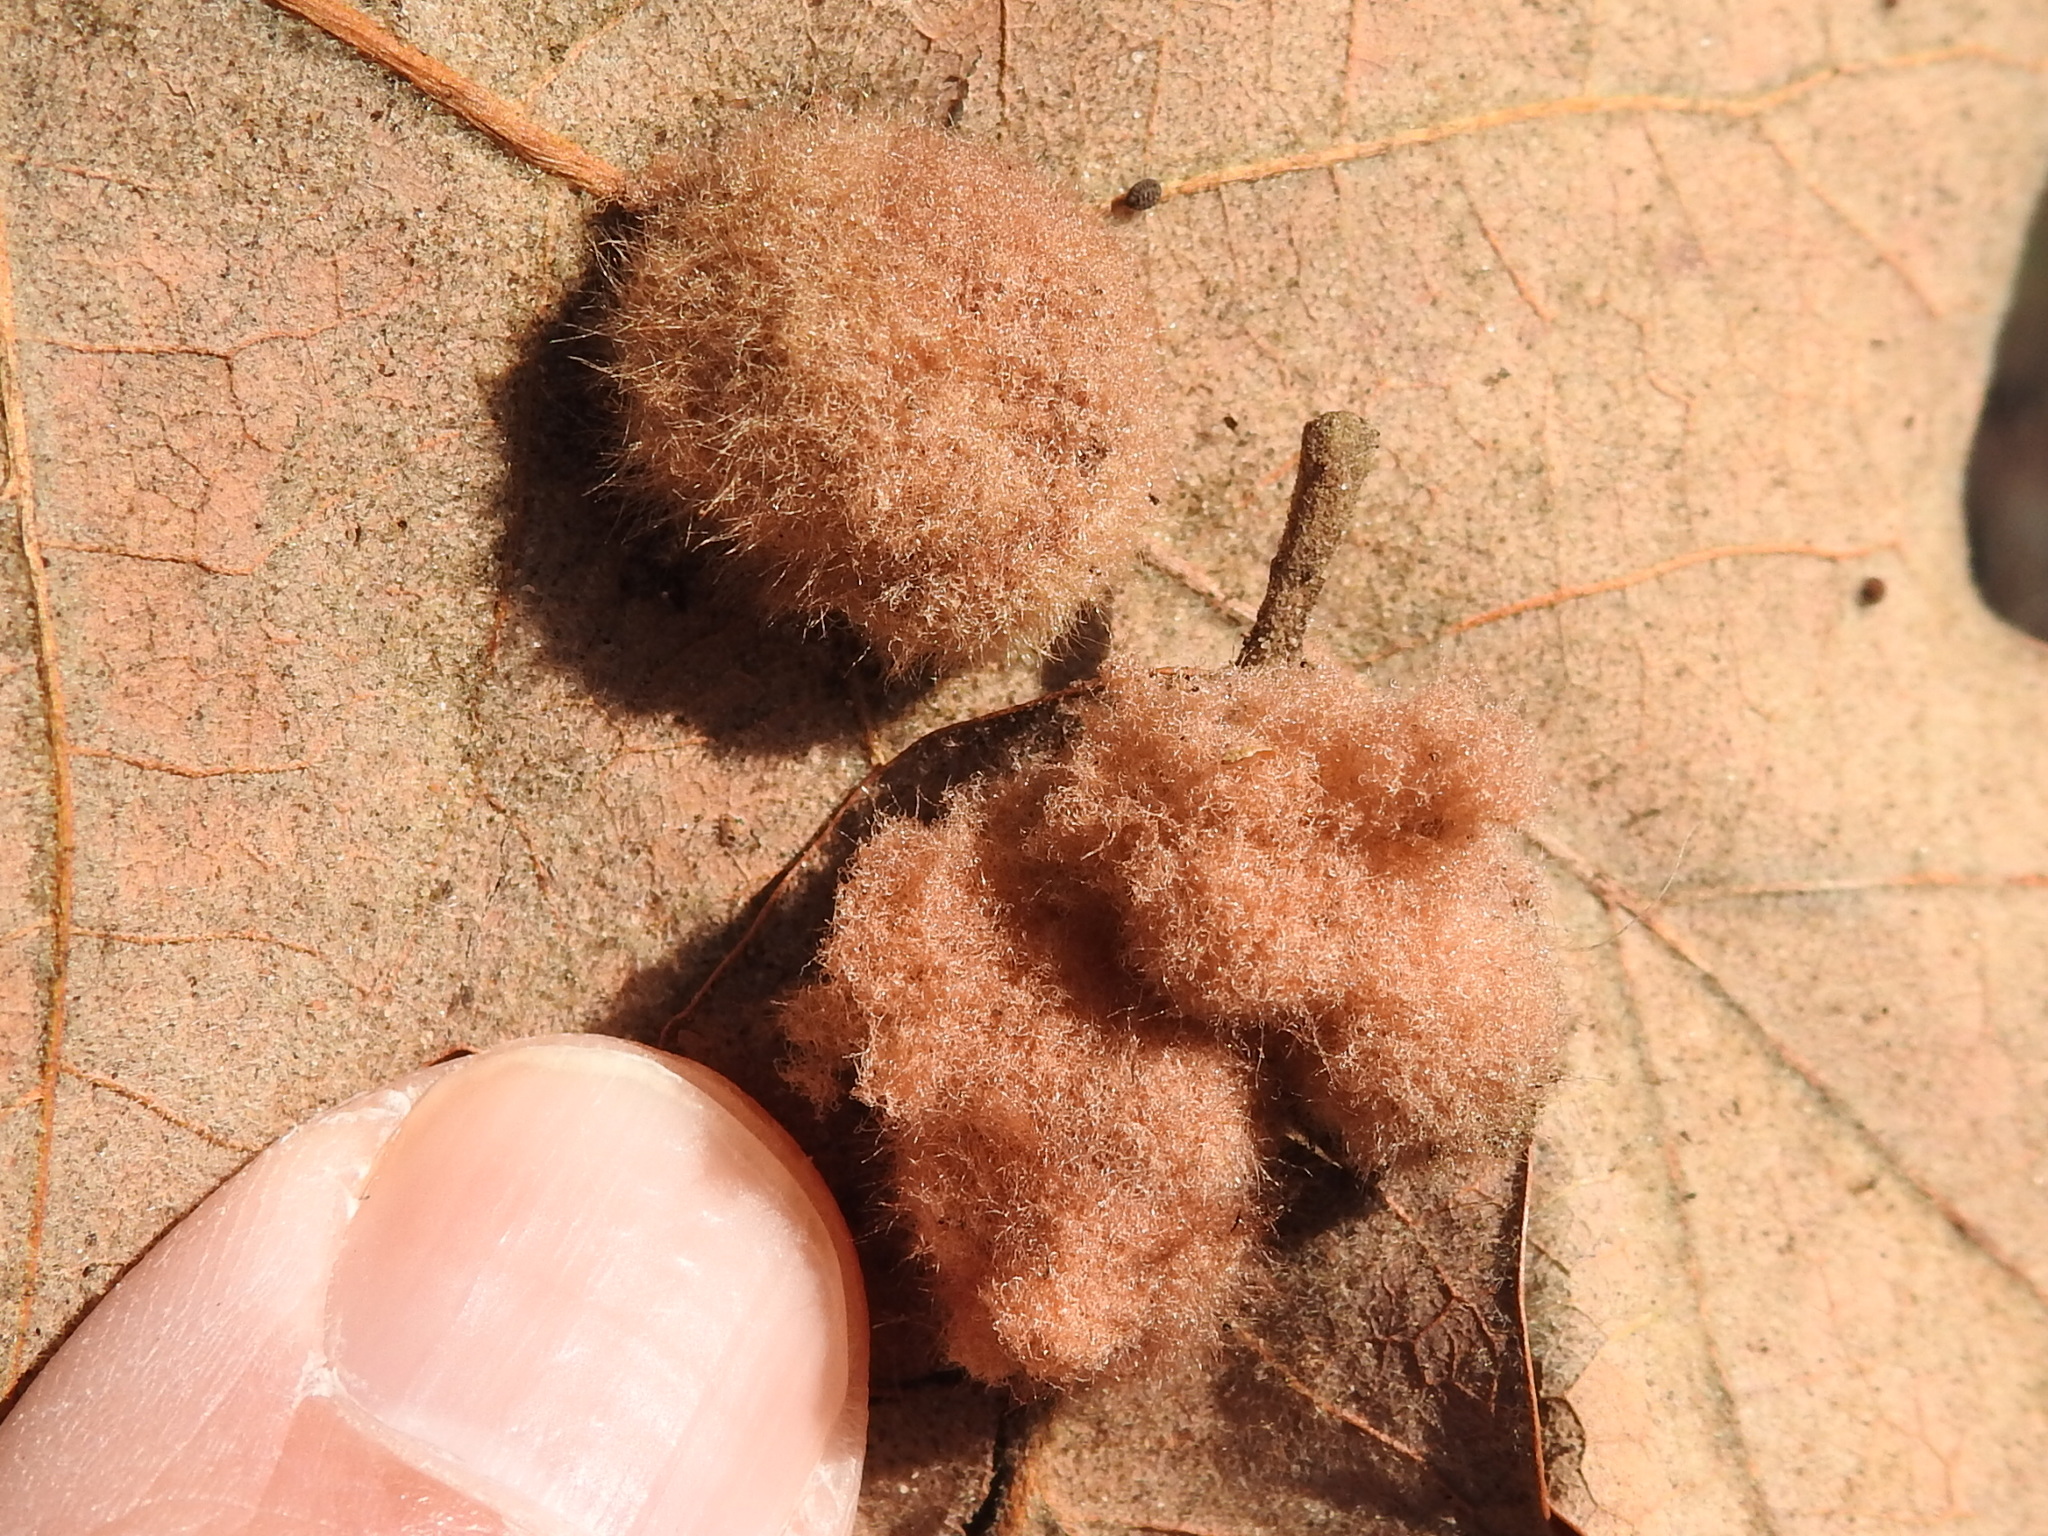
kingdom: Animalia
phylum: Arthropoda
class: Insecta
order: Hymenoptera
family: Cynipidae
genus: Andricus
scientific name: Andricus Druon pattoni
